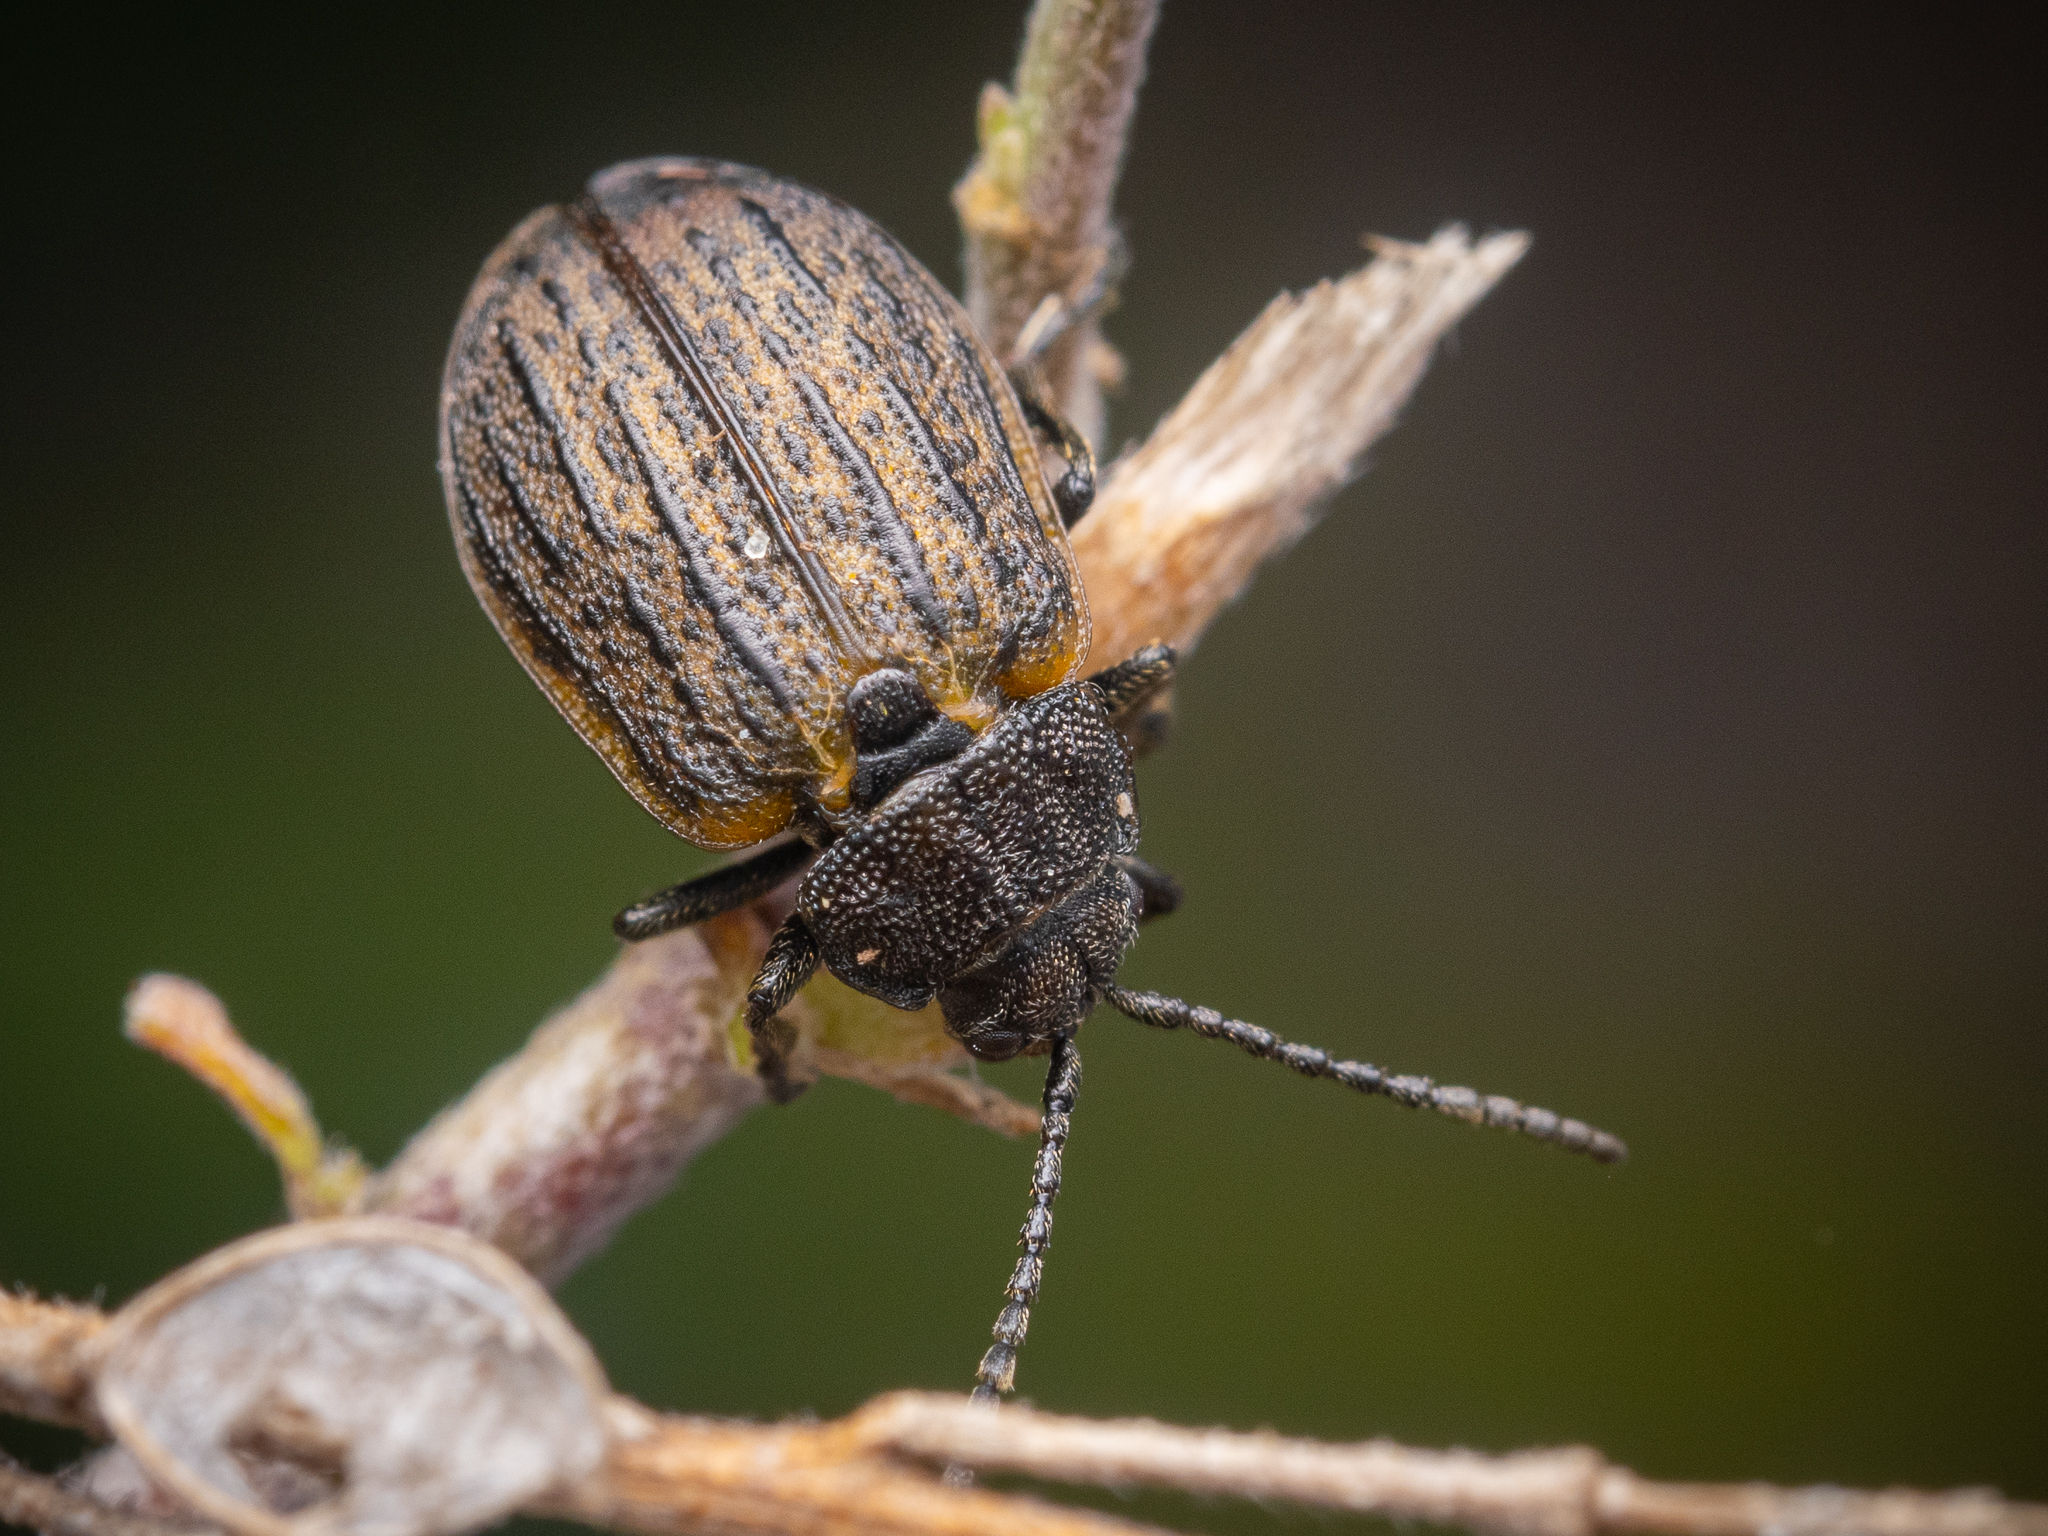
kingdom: Animalia
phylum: Arthropoda
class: Insecta
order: Coleoptera
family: Chrysomelidae
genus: Galeruca
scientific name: Galeruca pomonae
